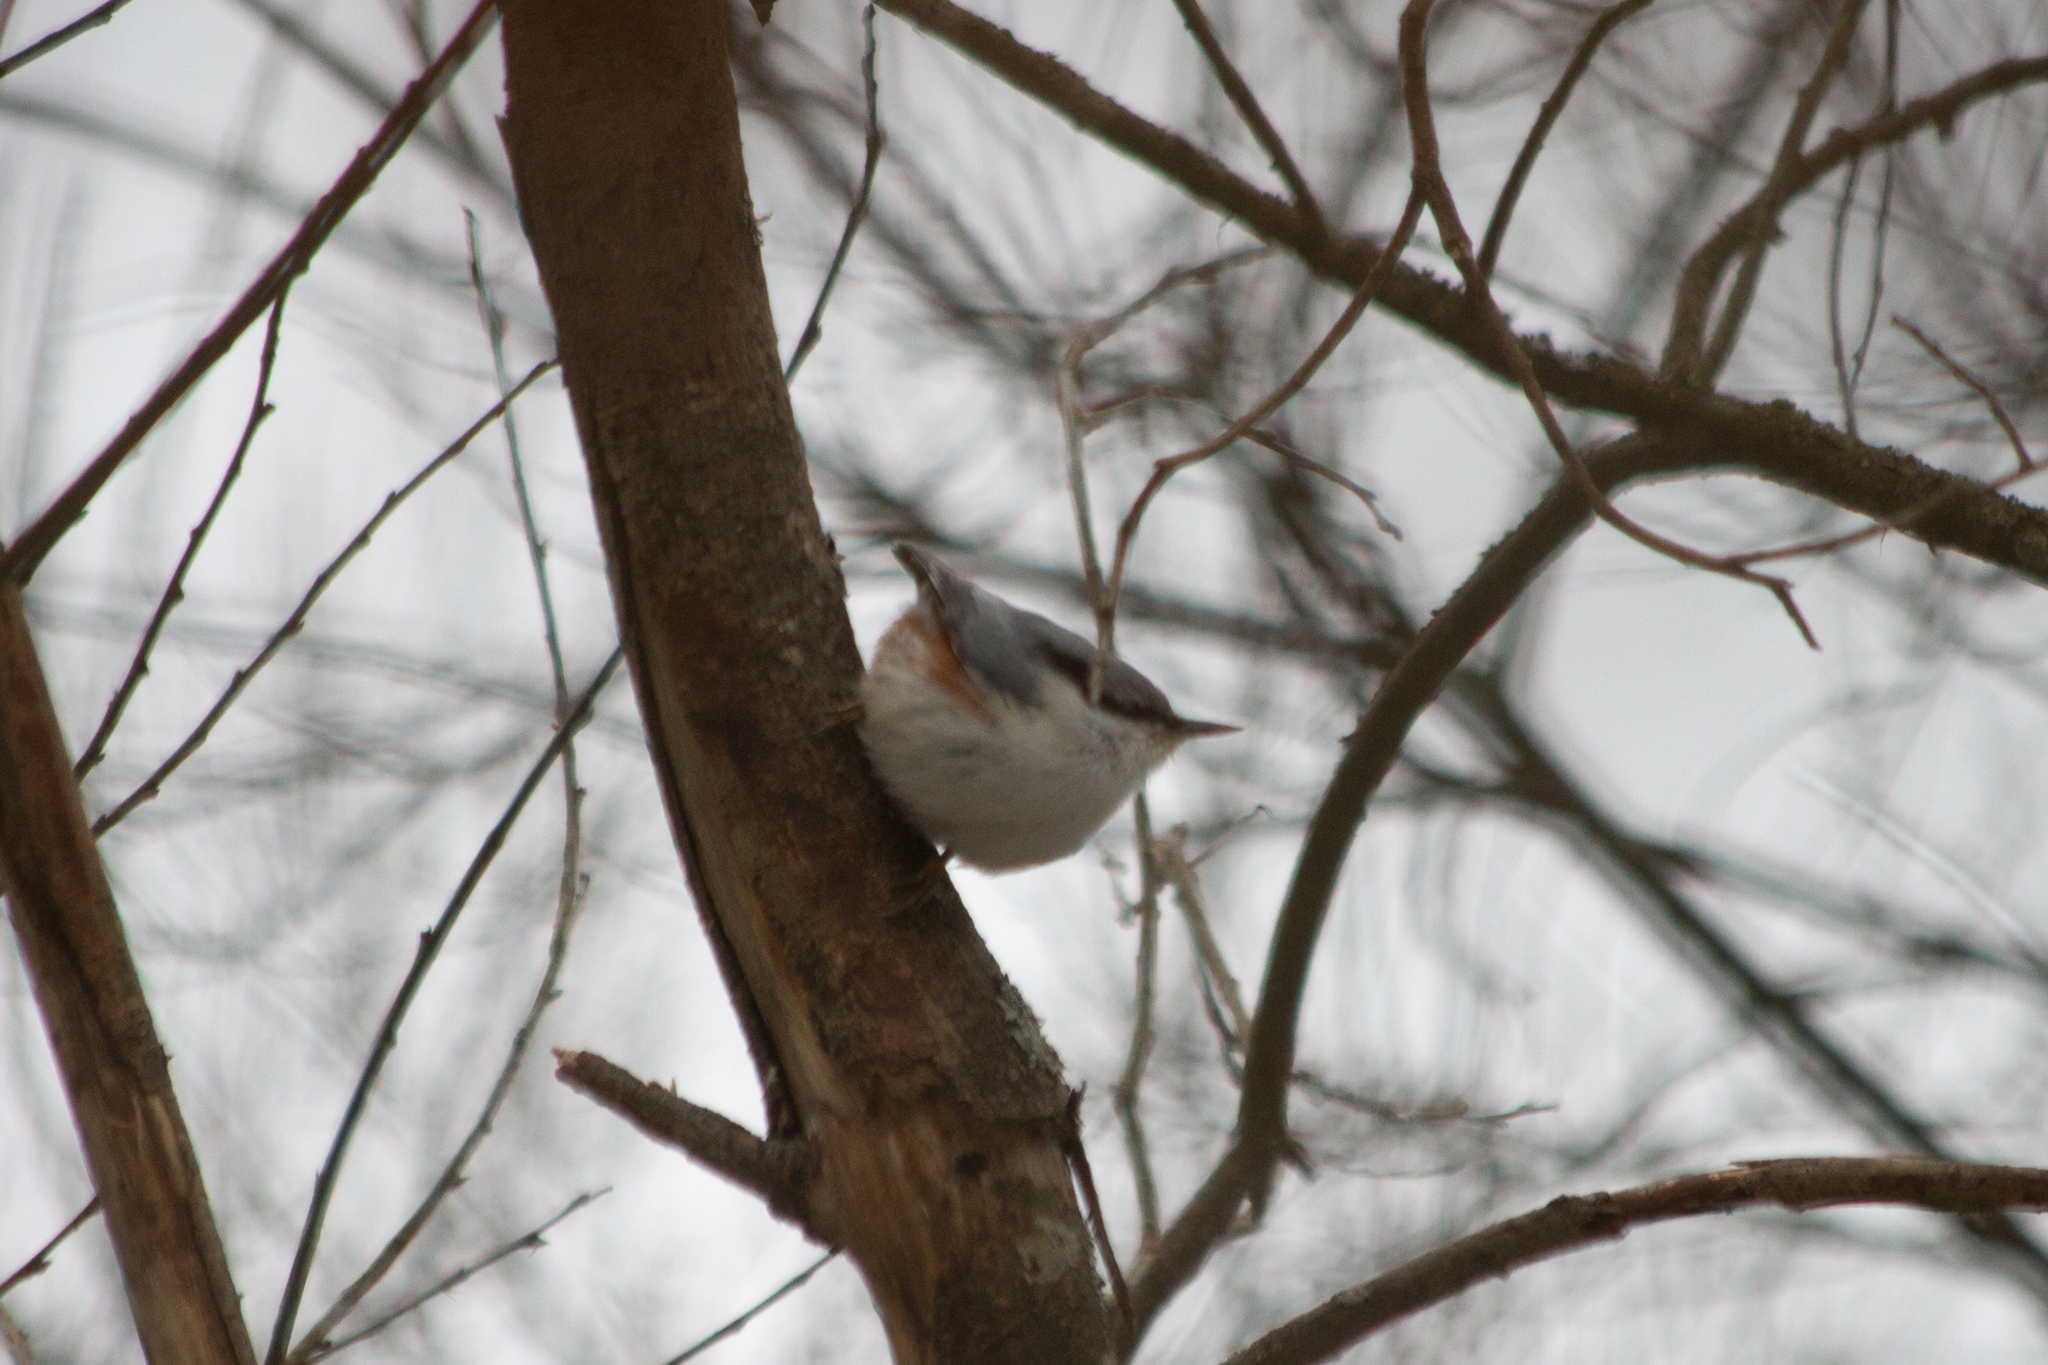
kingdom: Animalia
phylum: Chordata
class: Aves
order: Passeriformes
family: Sittidae
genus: Sitta
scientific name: Sitta europaea
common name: Eurasian nuthatch
